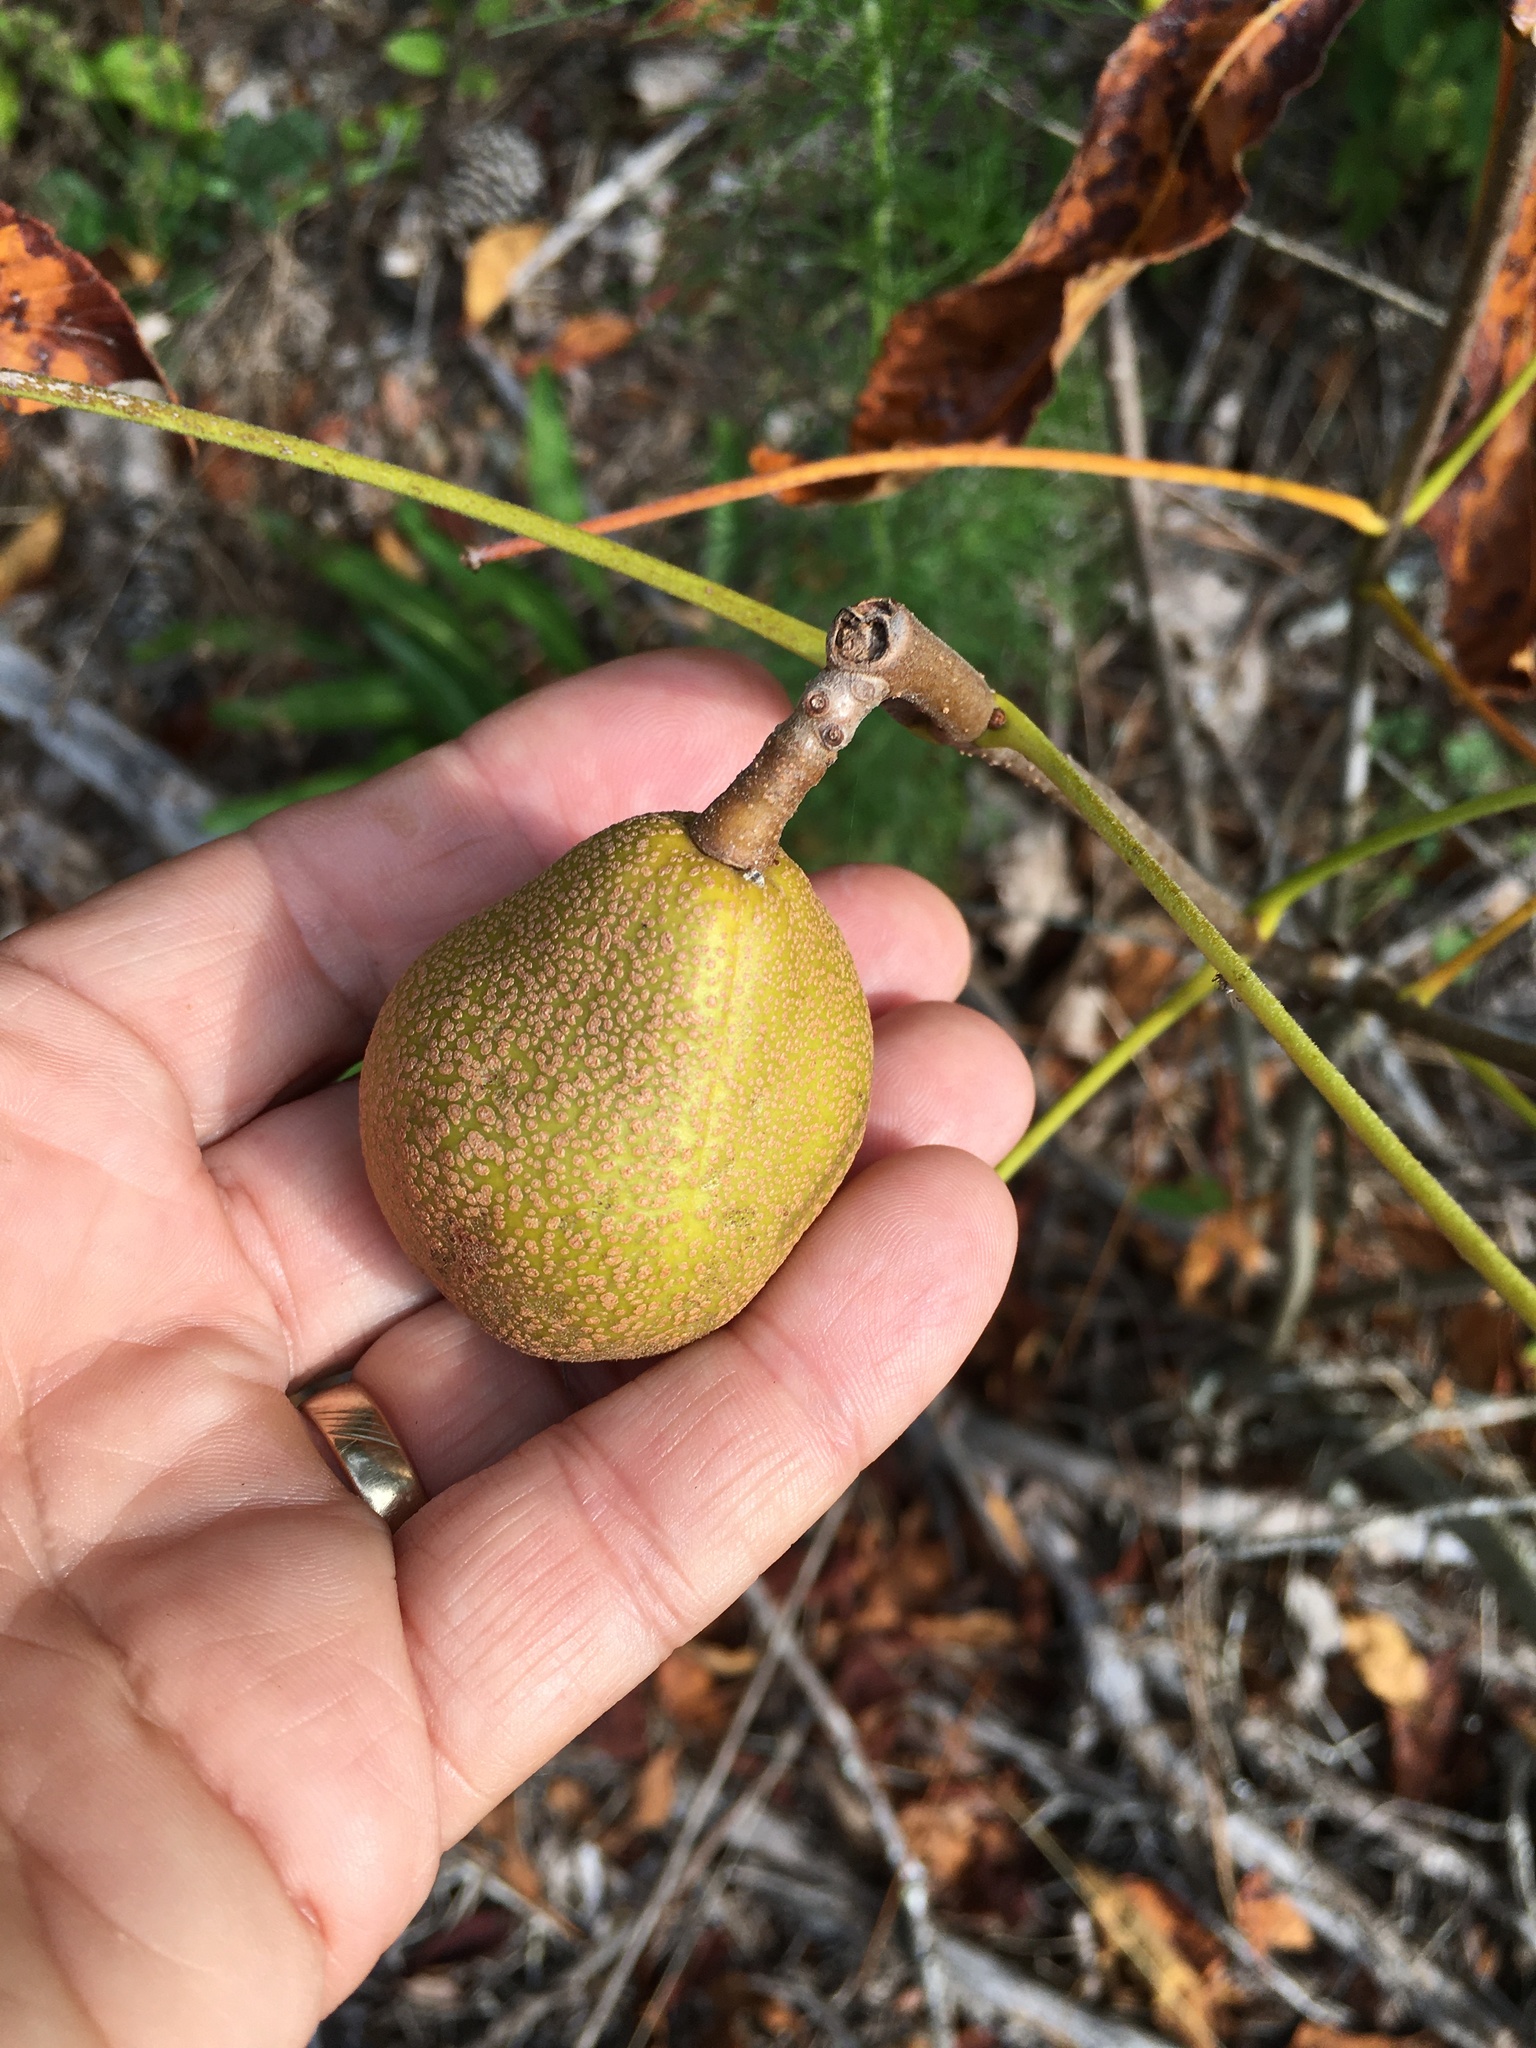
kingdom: Plantae
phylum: Tracheophyta
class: Magnoliopsida
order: Sapindales
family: Sapindaceae
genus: Aesculus
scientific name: Aesculus sylvatica
